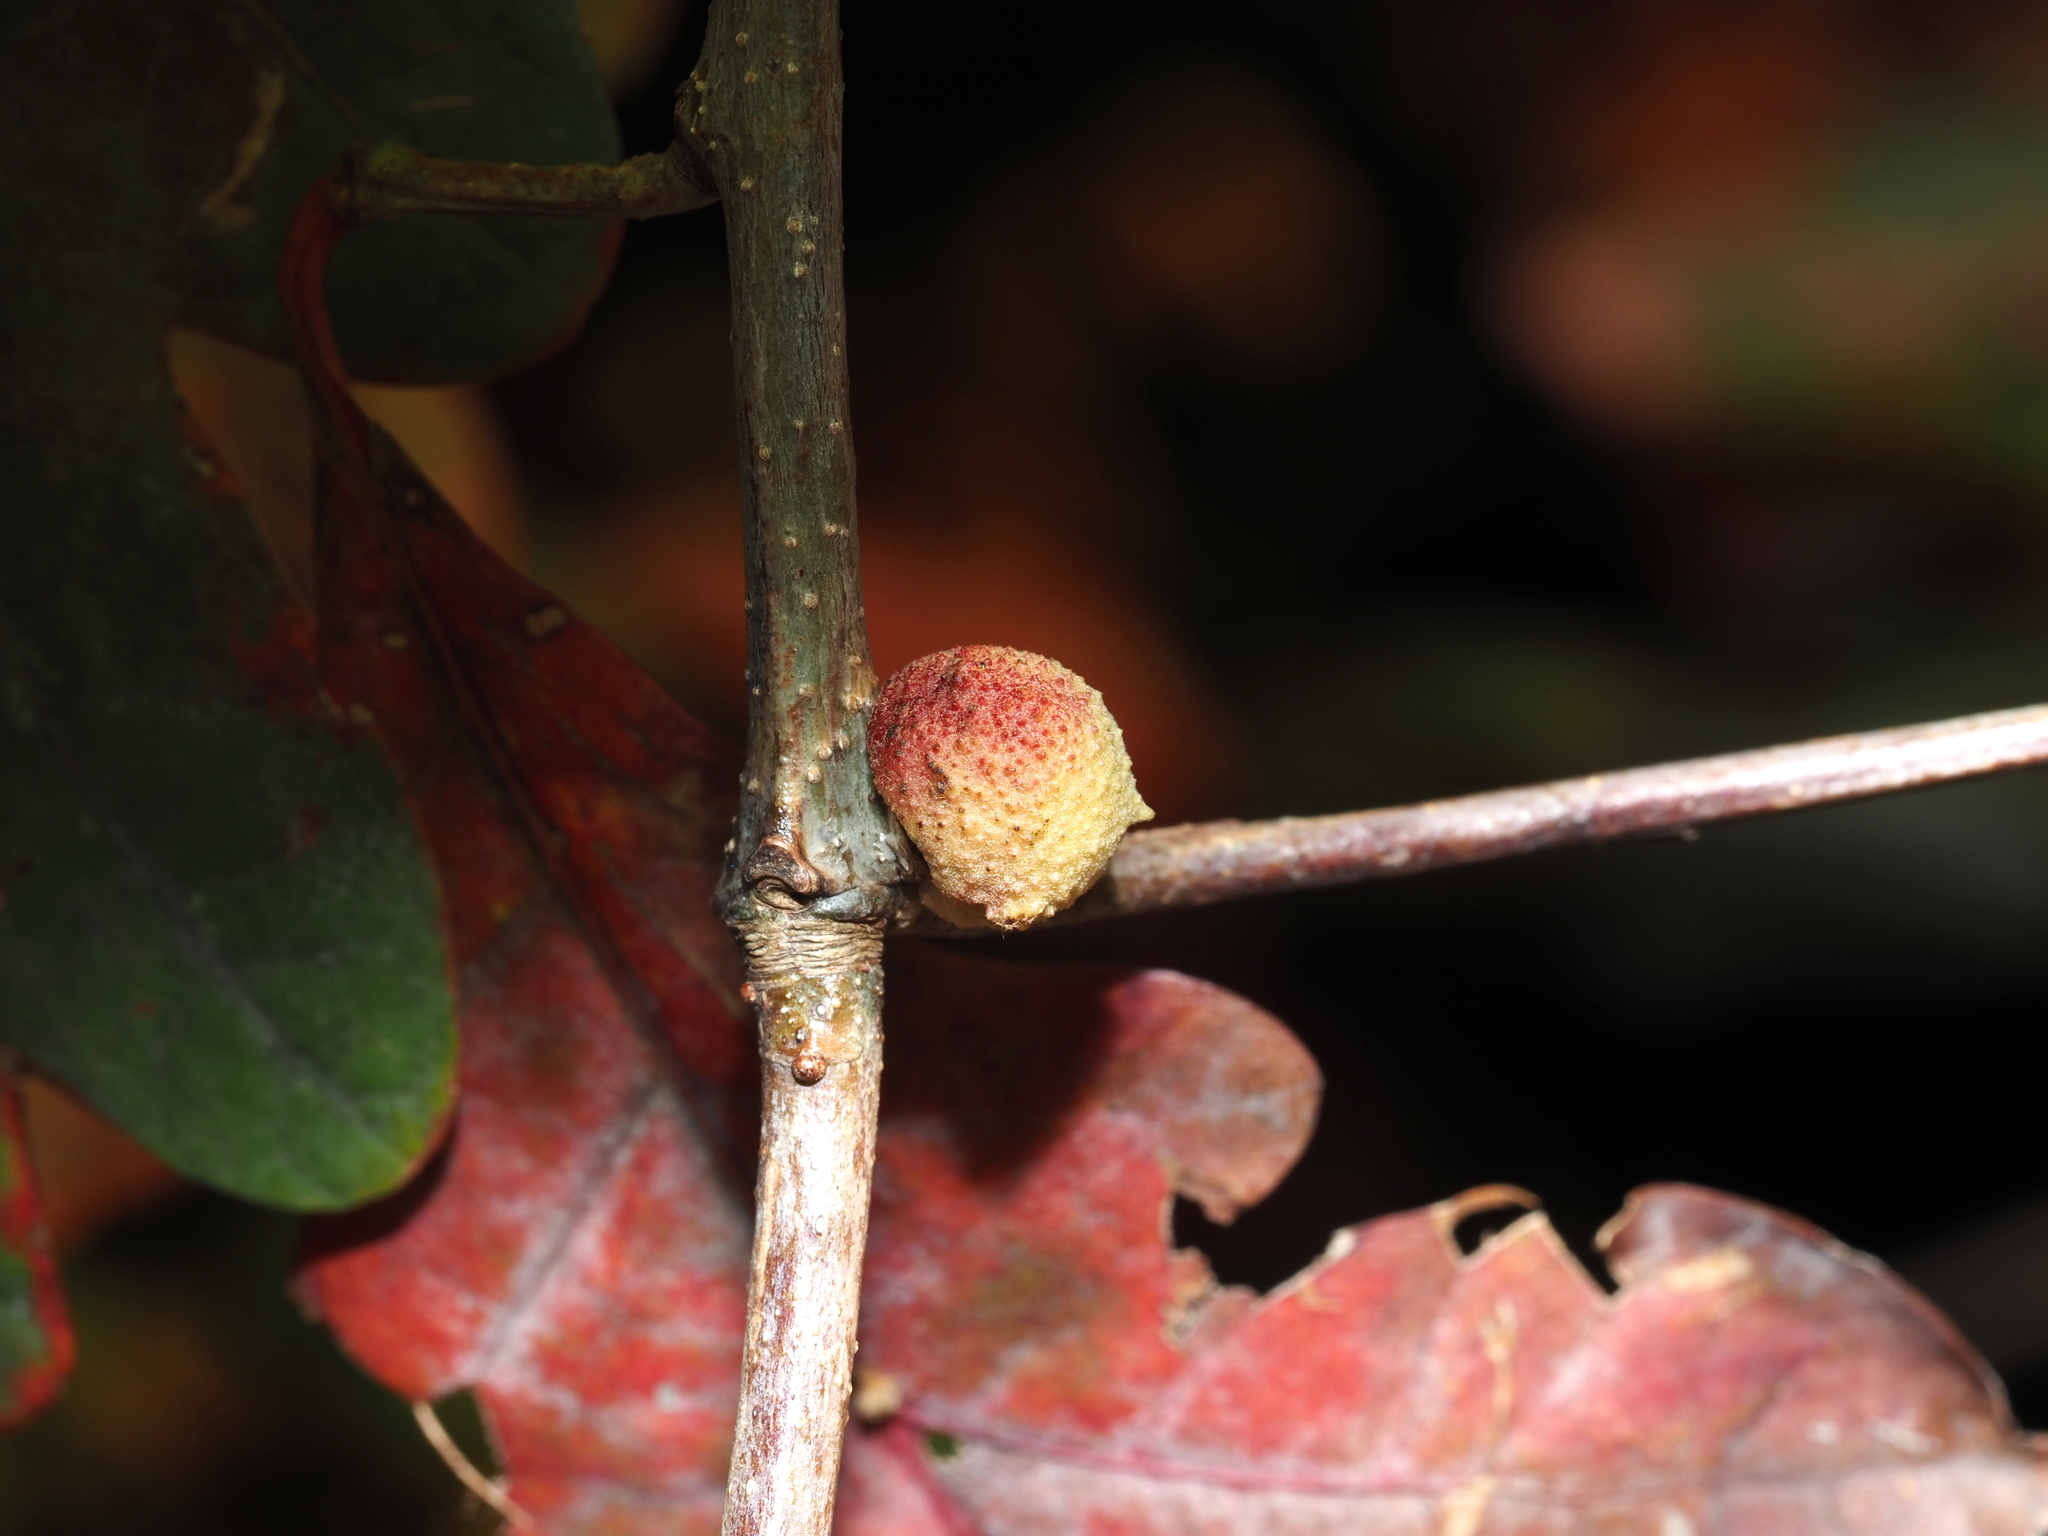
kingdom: Animalia
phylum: Arthropoda
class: Insecta
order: Hymenoptera
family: Cynipidae
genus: Disholcaspis
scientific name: Disholcaspis quercusglobulus
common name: Round bullet gall wasp
